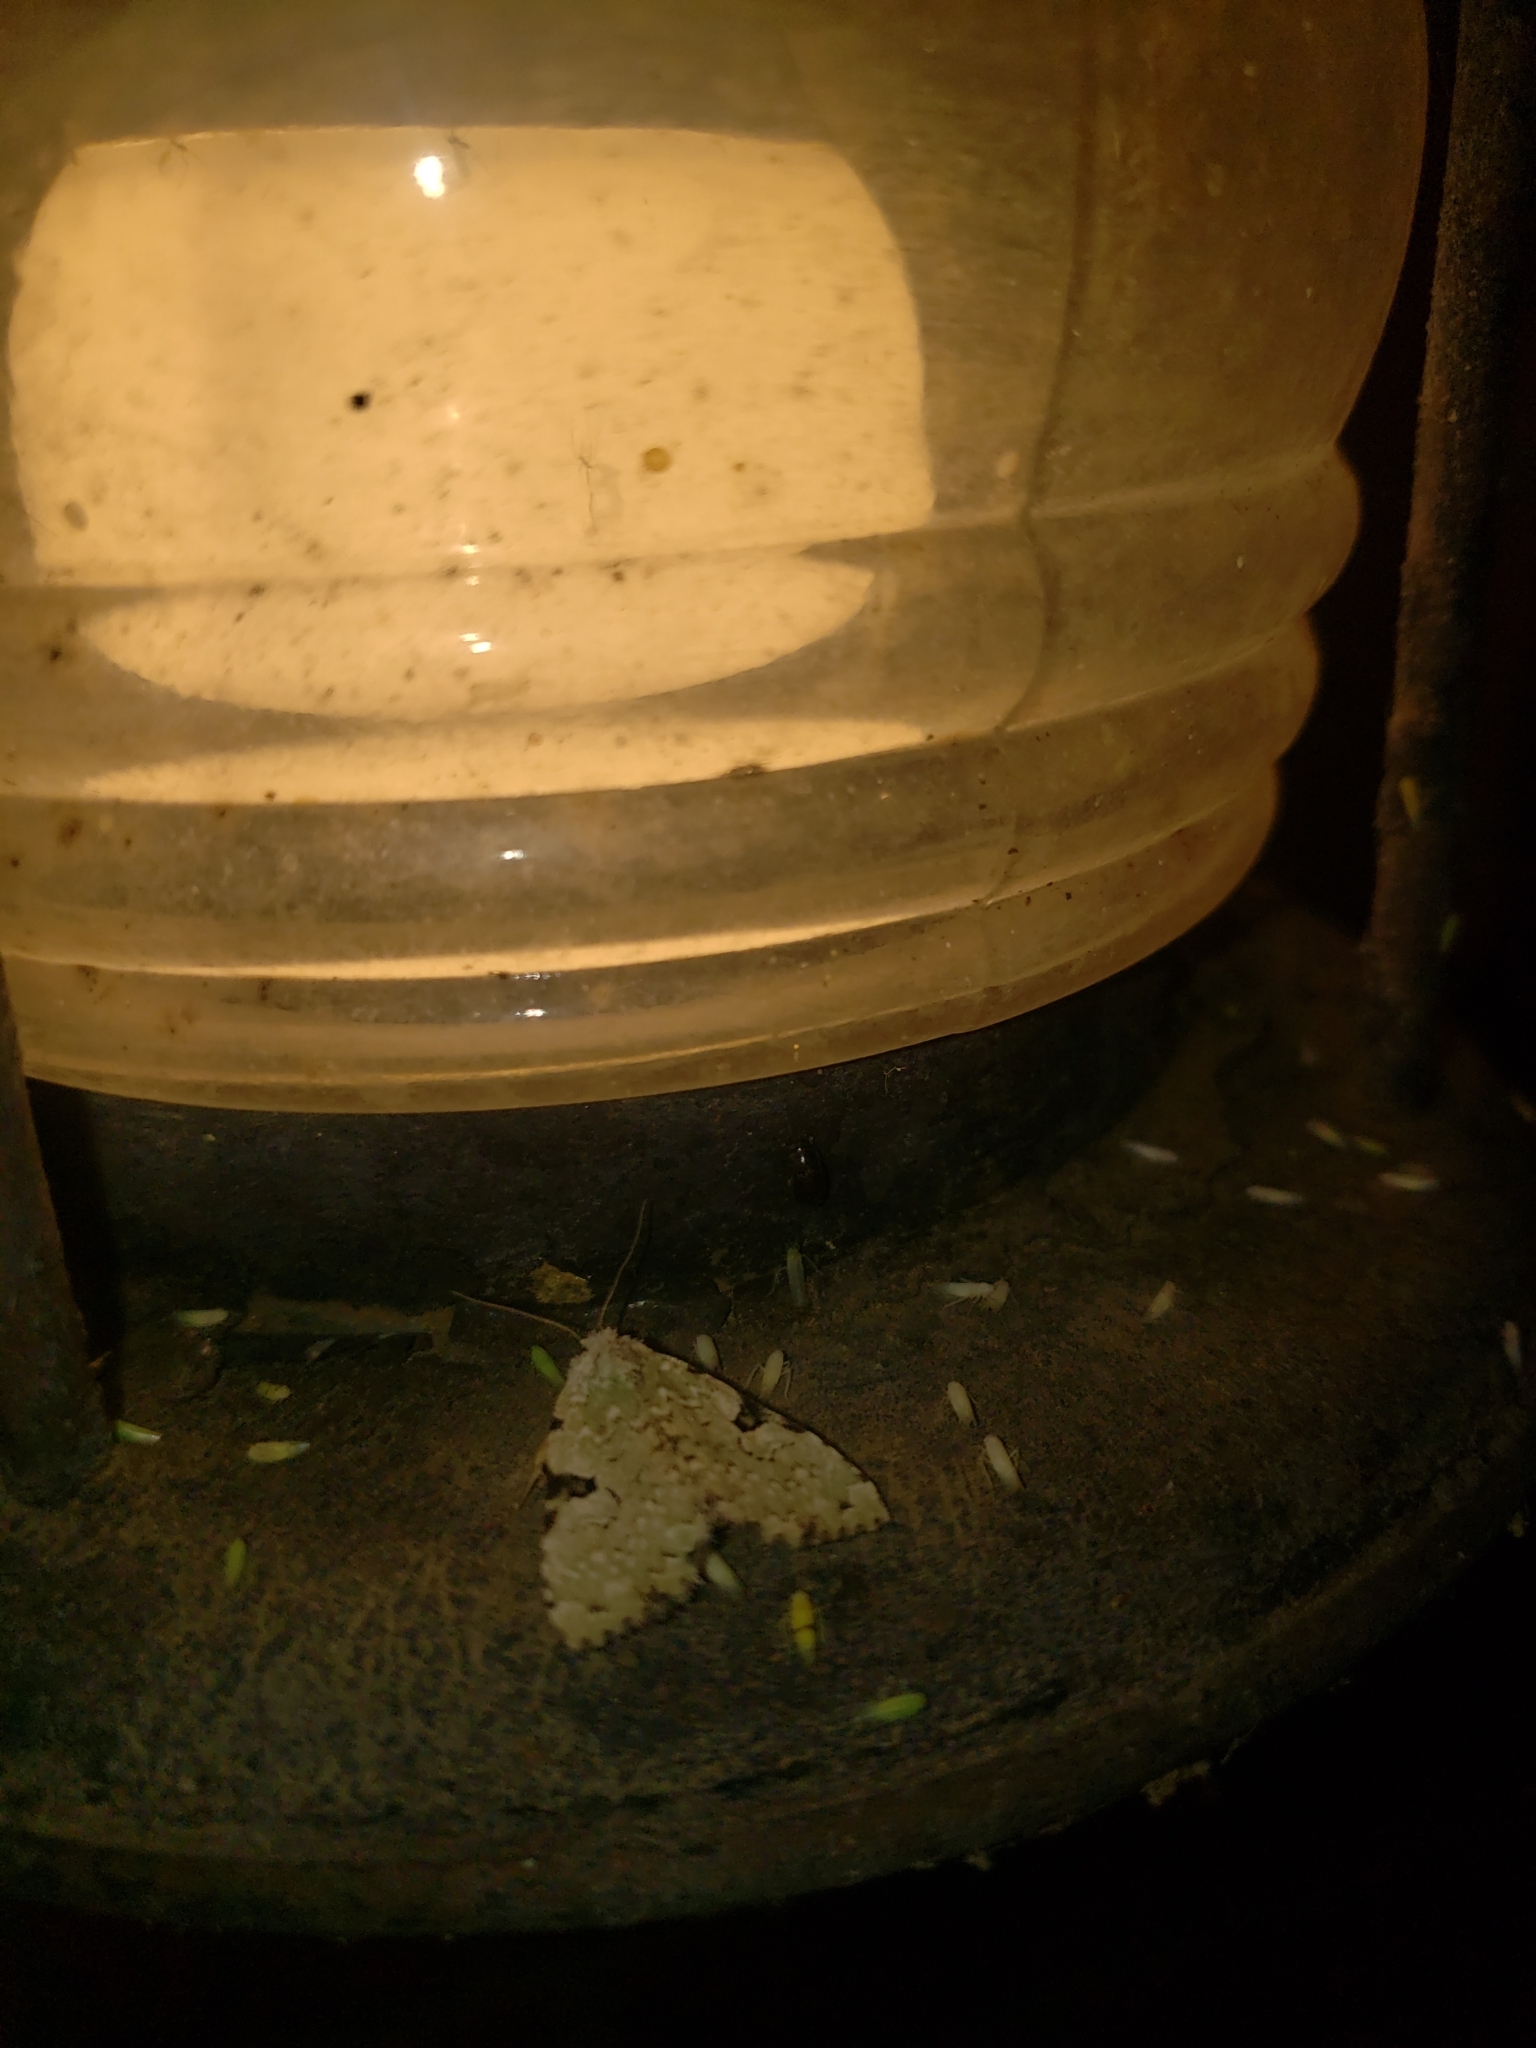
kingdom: Animalia
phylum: Arthropoda
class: Insecta
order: Lepidoptera
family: Noctuidae
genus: Leuconycta
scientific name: Leuconycta diphteroides
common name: Green leuconycta moth
